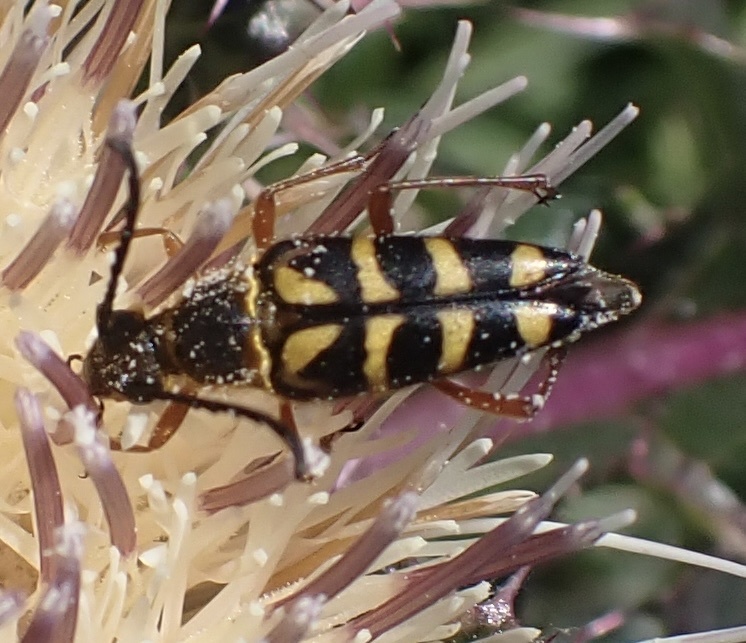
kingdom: Animalia
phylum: Arthropoda
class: Insecta
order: Coleoptera
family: Cerambycidae
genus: Typocerus
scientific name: Typocerus zebra
